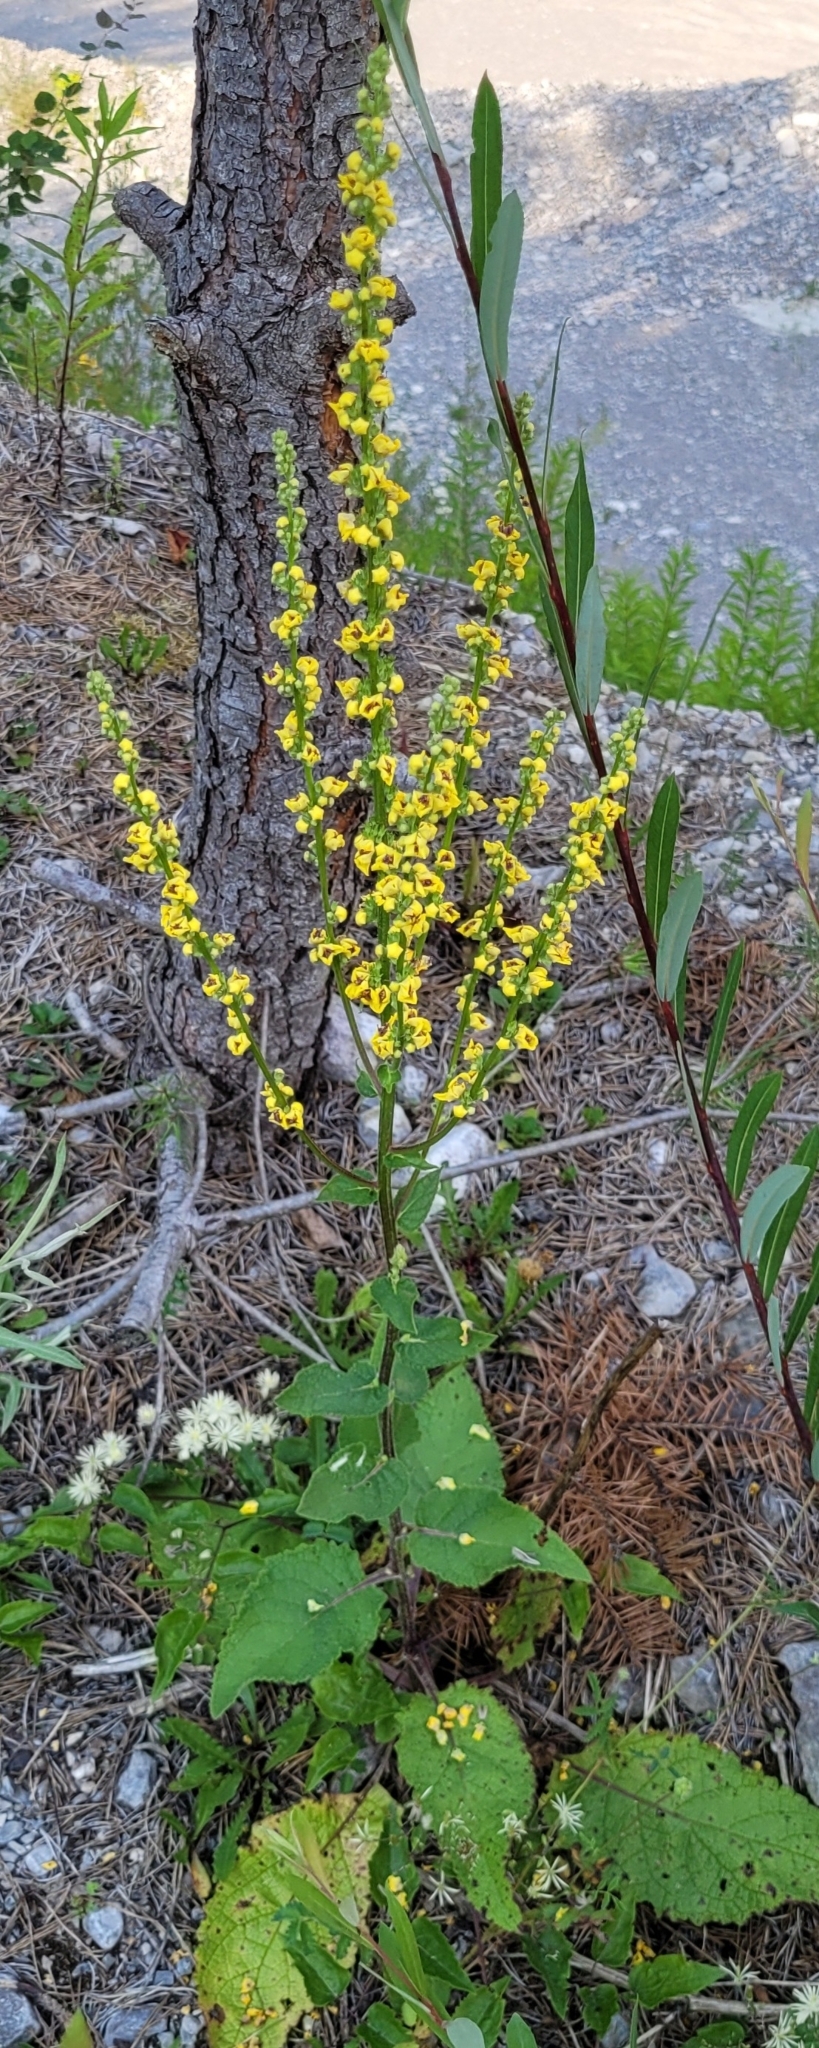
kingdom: Plantae
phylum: Tracheophyta
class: Magnoliopsida
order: Lamiales
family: Scrophulariaceae
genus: Verbascum
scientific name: Verbascum chaixii
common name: Nettle-leaved mullein
